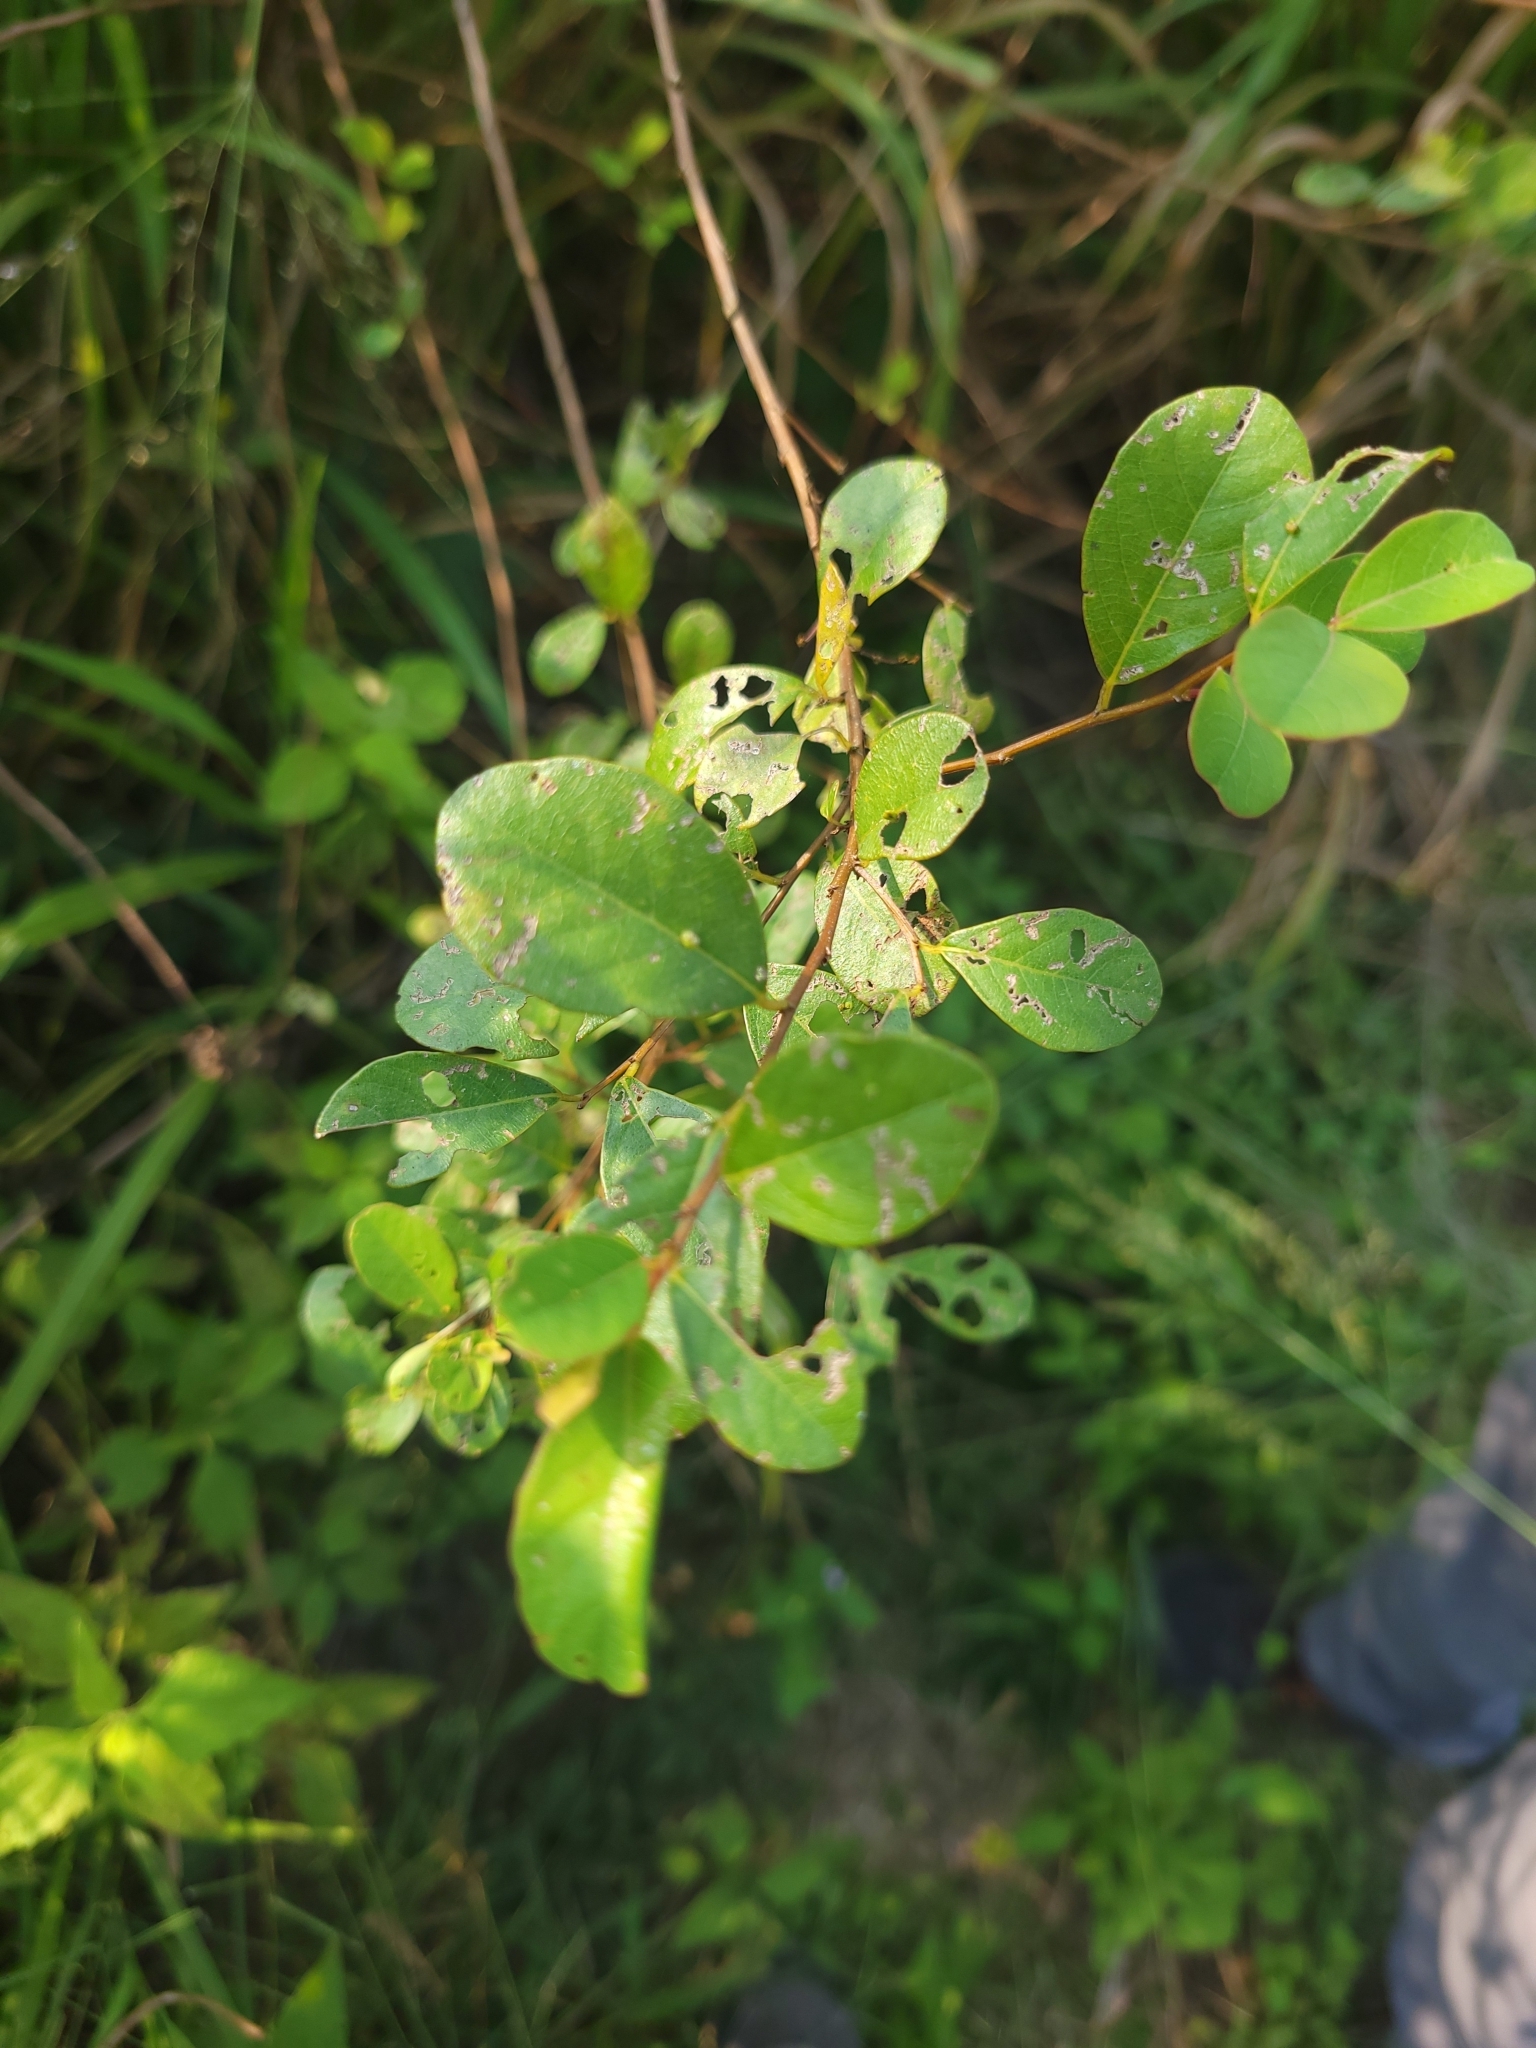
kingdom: Plantae
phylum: Tracheophyta
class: Magnoliopsida
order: Malpighiales
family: Phyllanthaceae
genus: Flueggea
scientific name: Flueggea virosa
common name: Common bushweed
